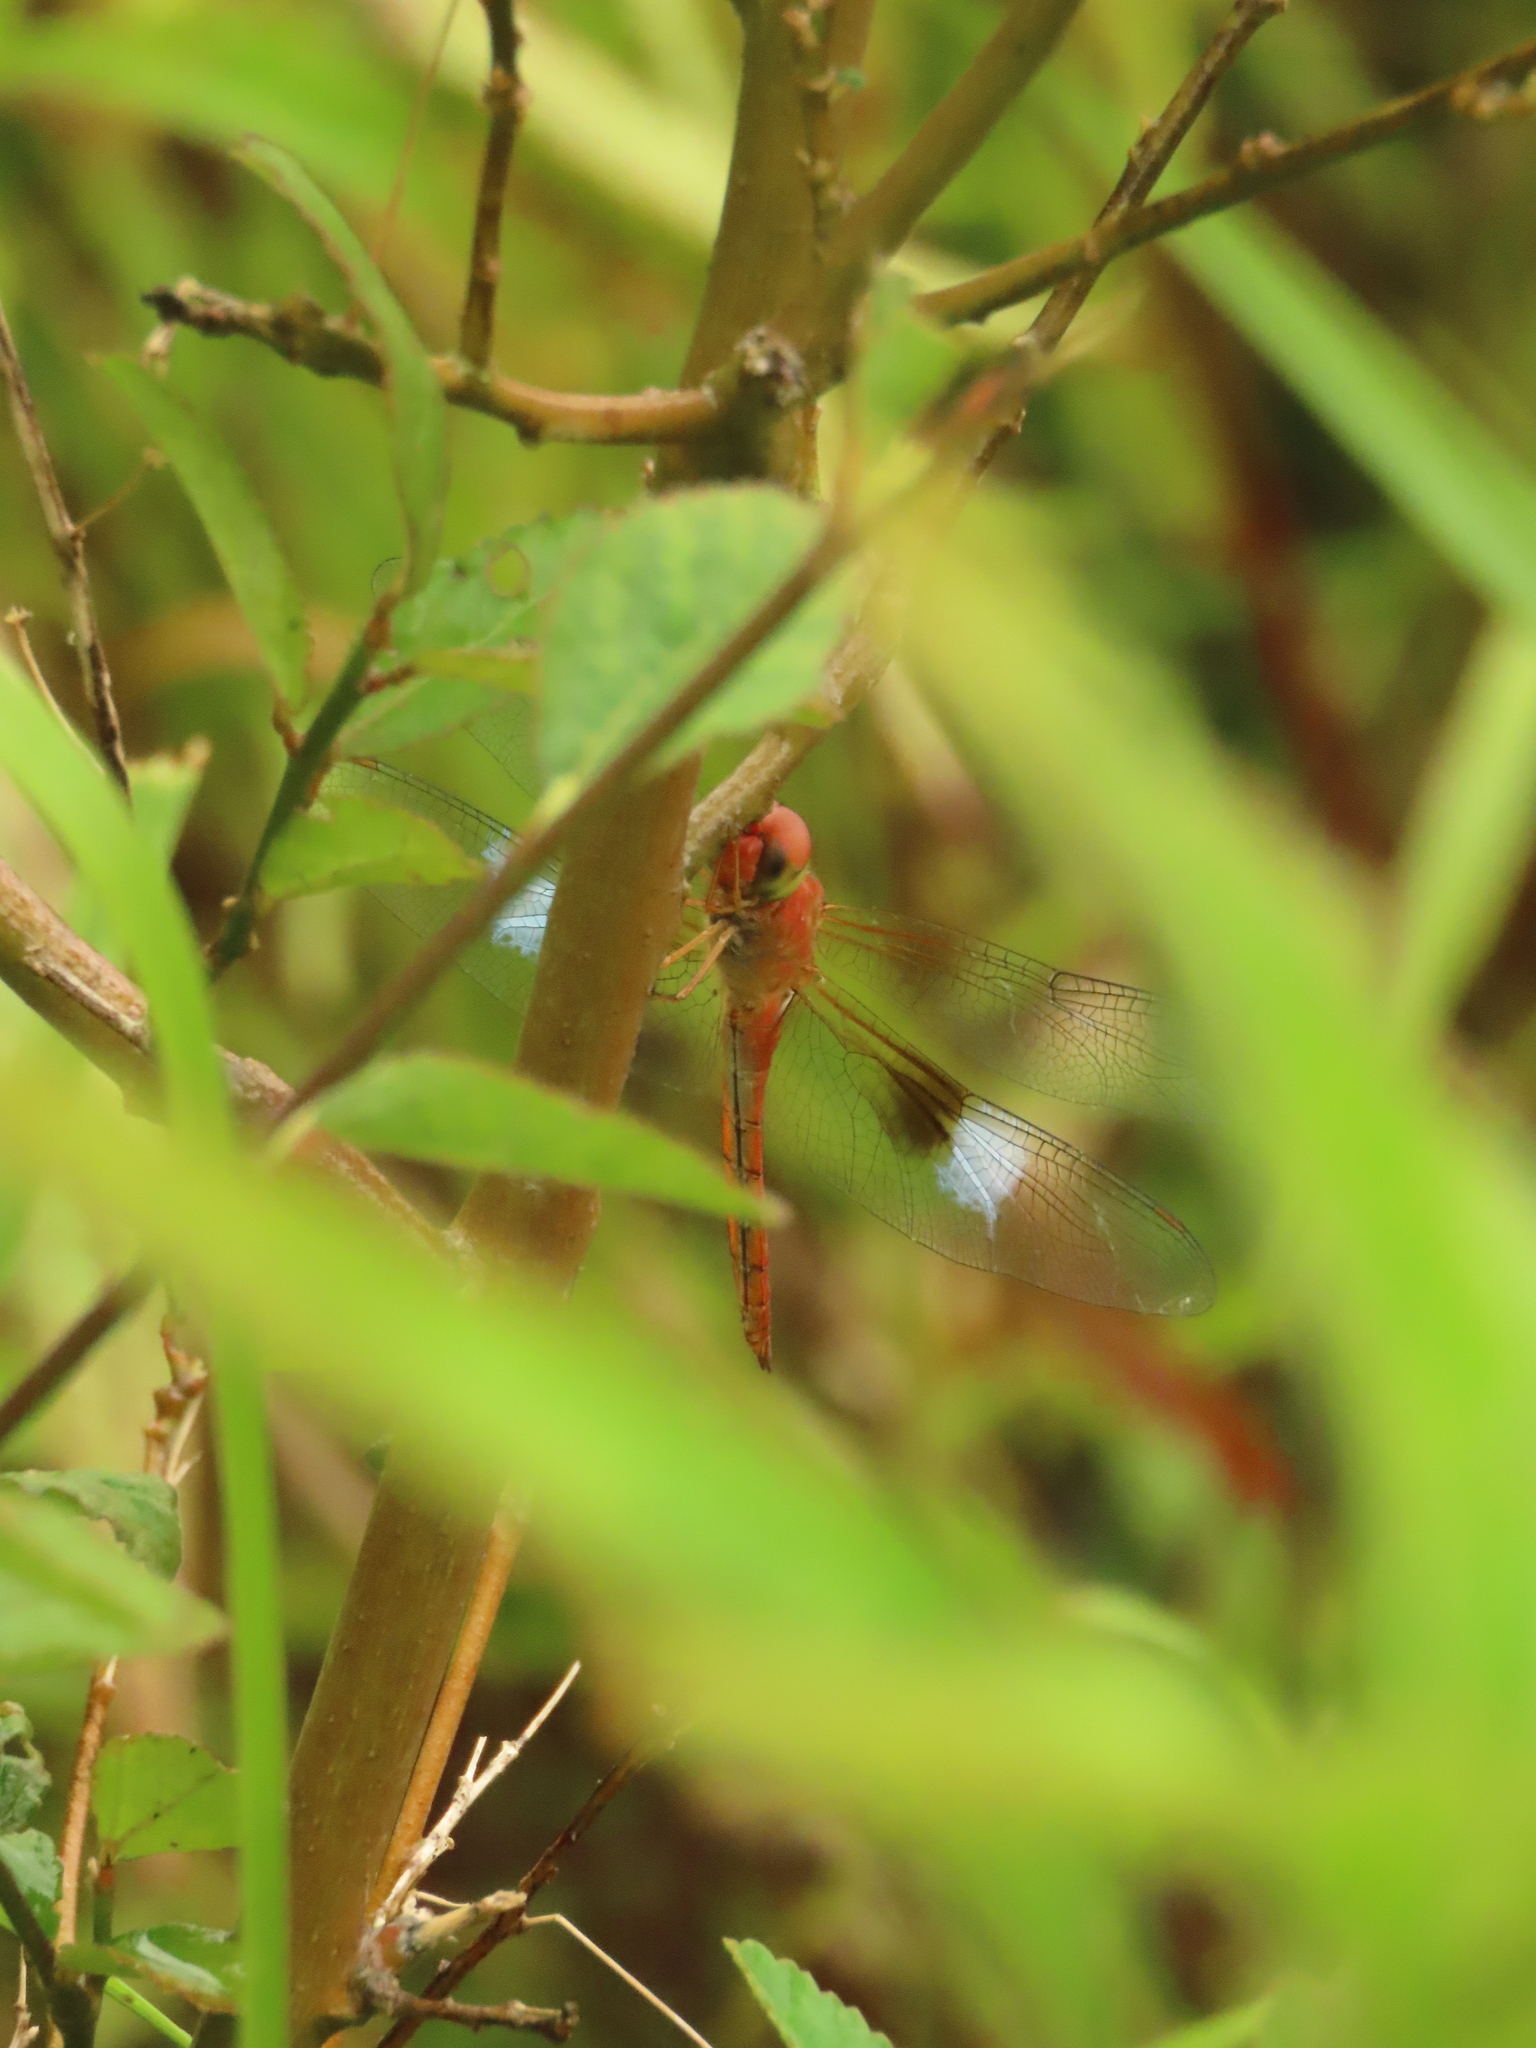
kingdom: Animalia
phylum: Arthropoda
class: Insecta
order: Odonata
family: Libellulidae
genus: Tholymis
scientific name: Tholymis tillarga
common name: Coral-tailed cloud wing
